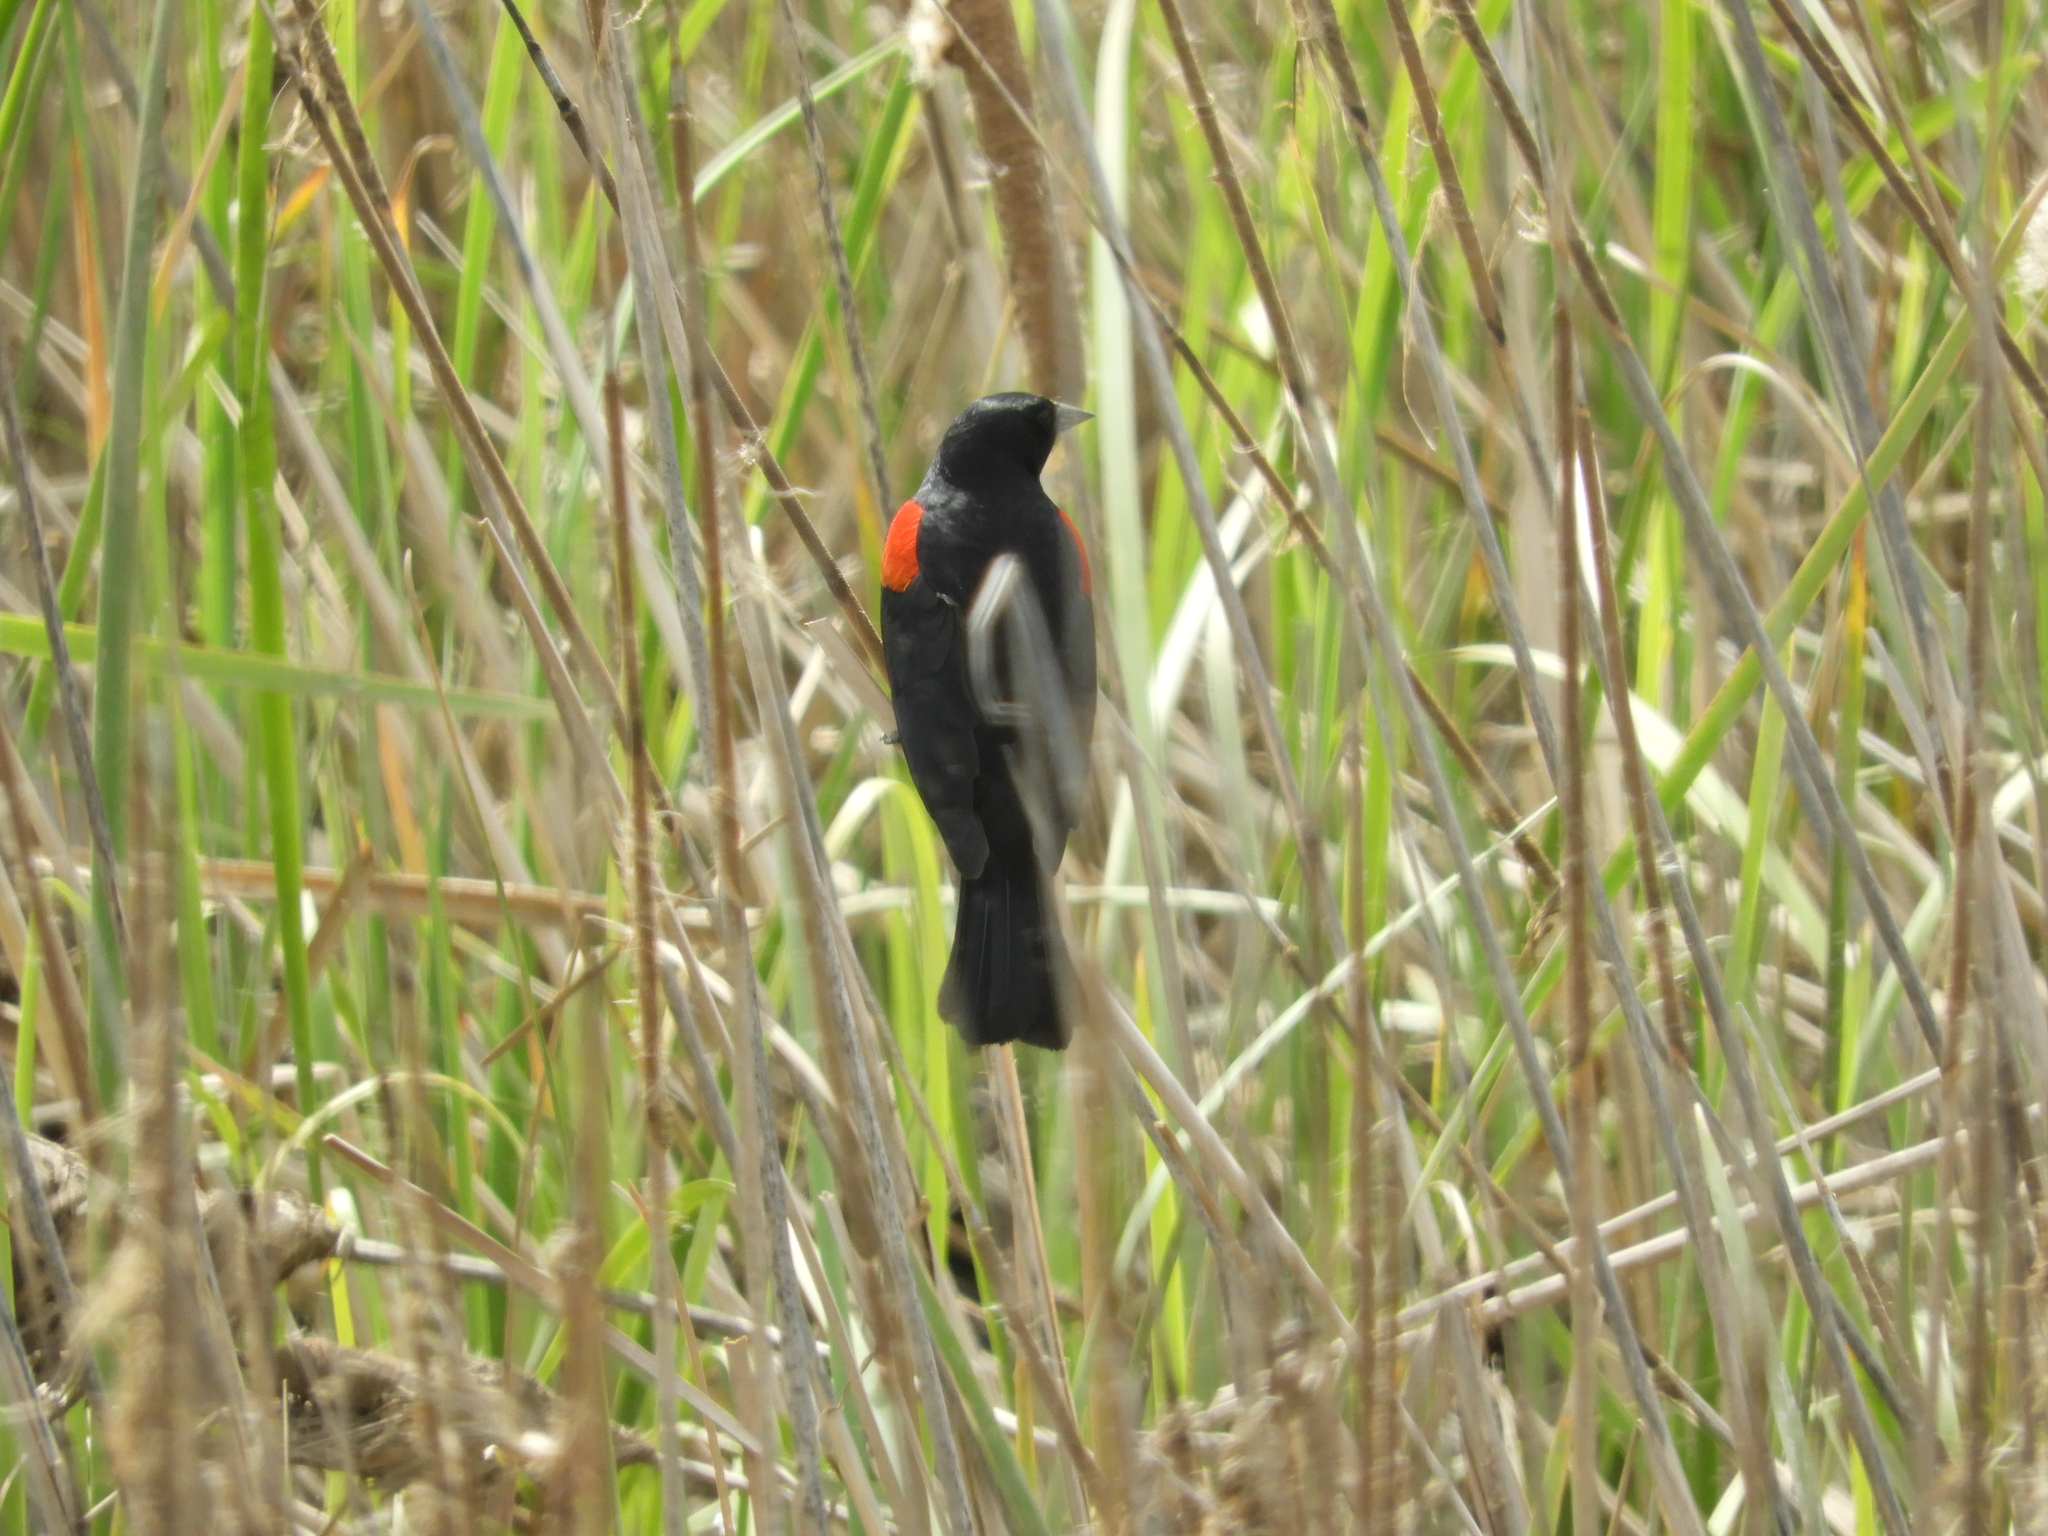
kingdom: Animalia
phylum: Chordata
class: Aves
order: Passeriformes
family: Icteridae
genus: Agelaius
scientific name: Agelaius phoeniceus
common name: Red-winged blackbird
